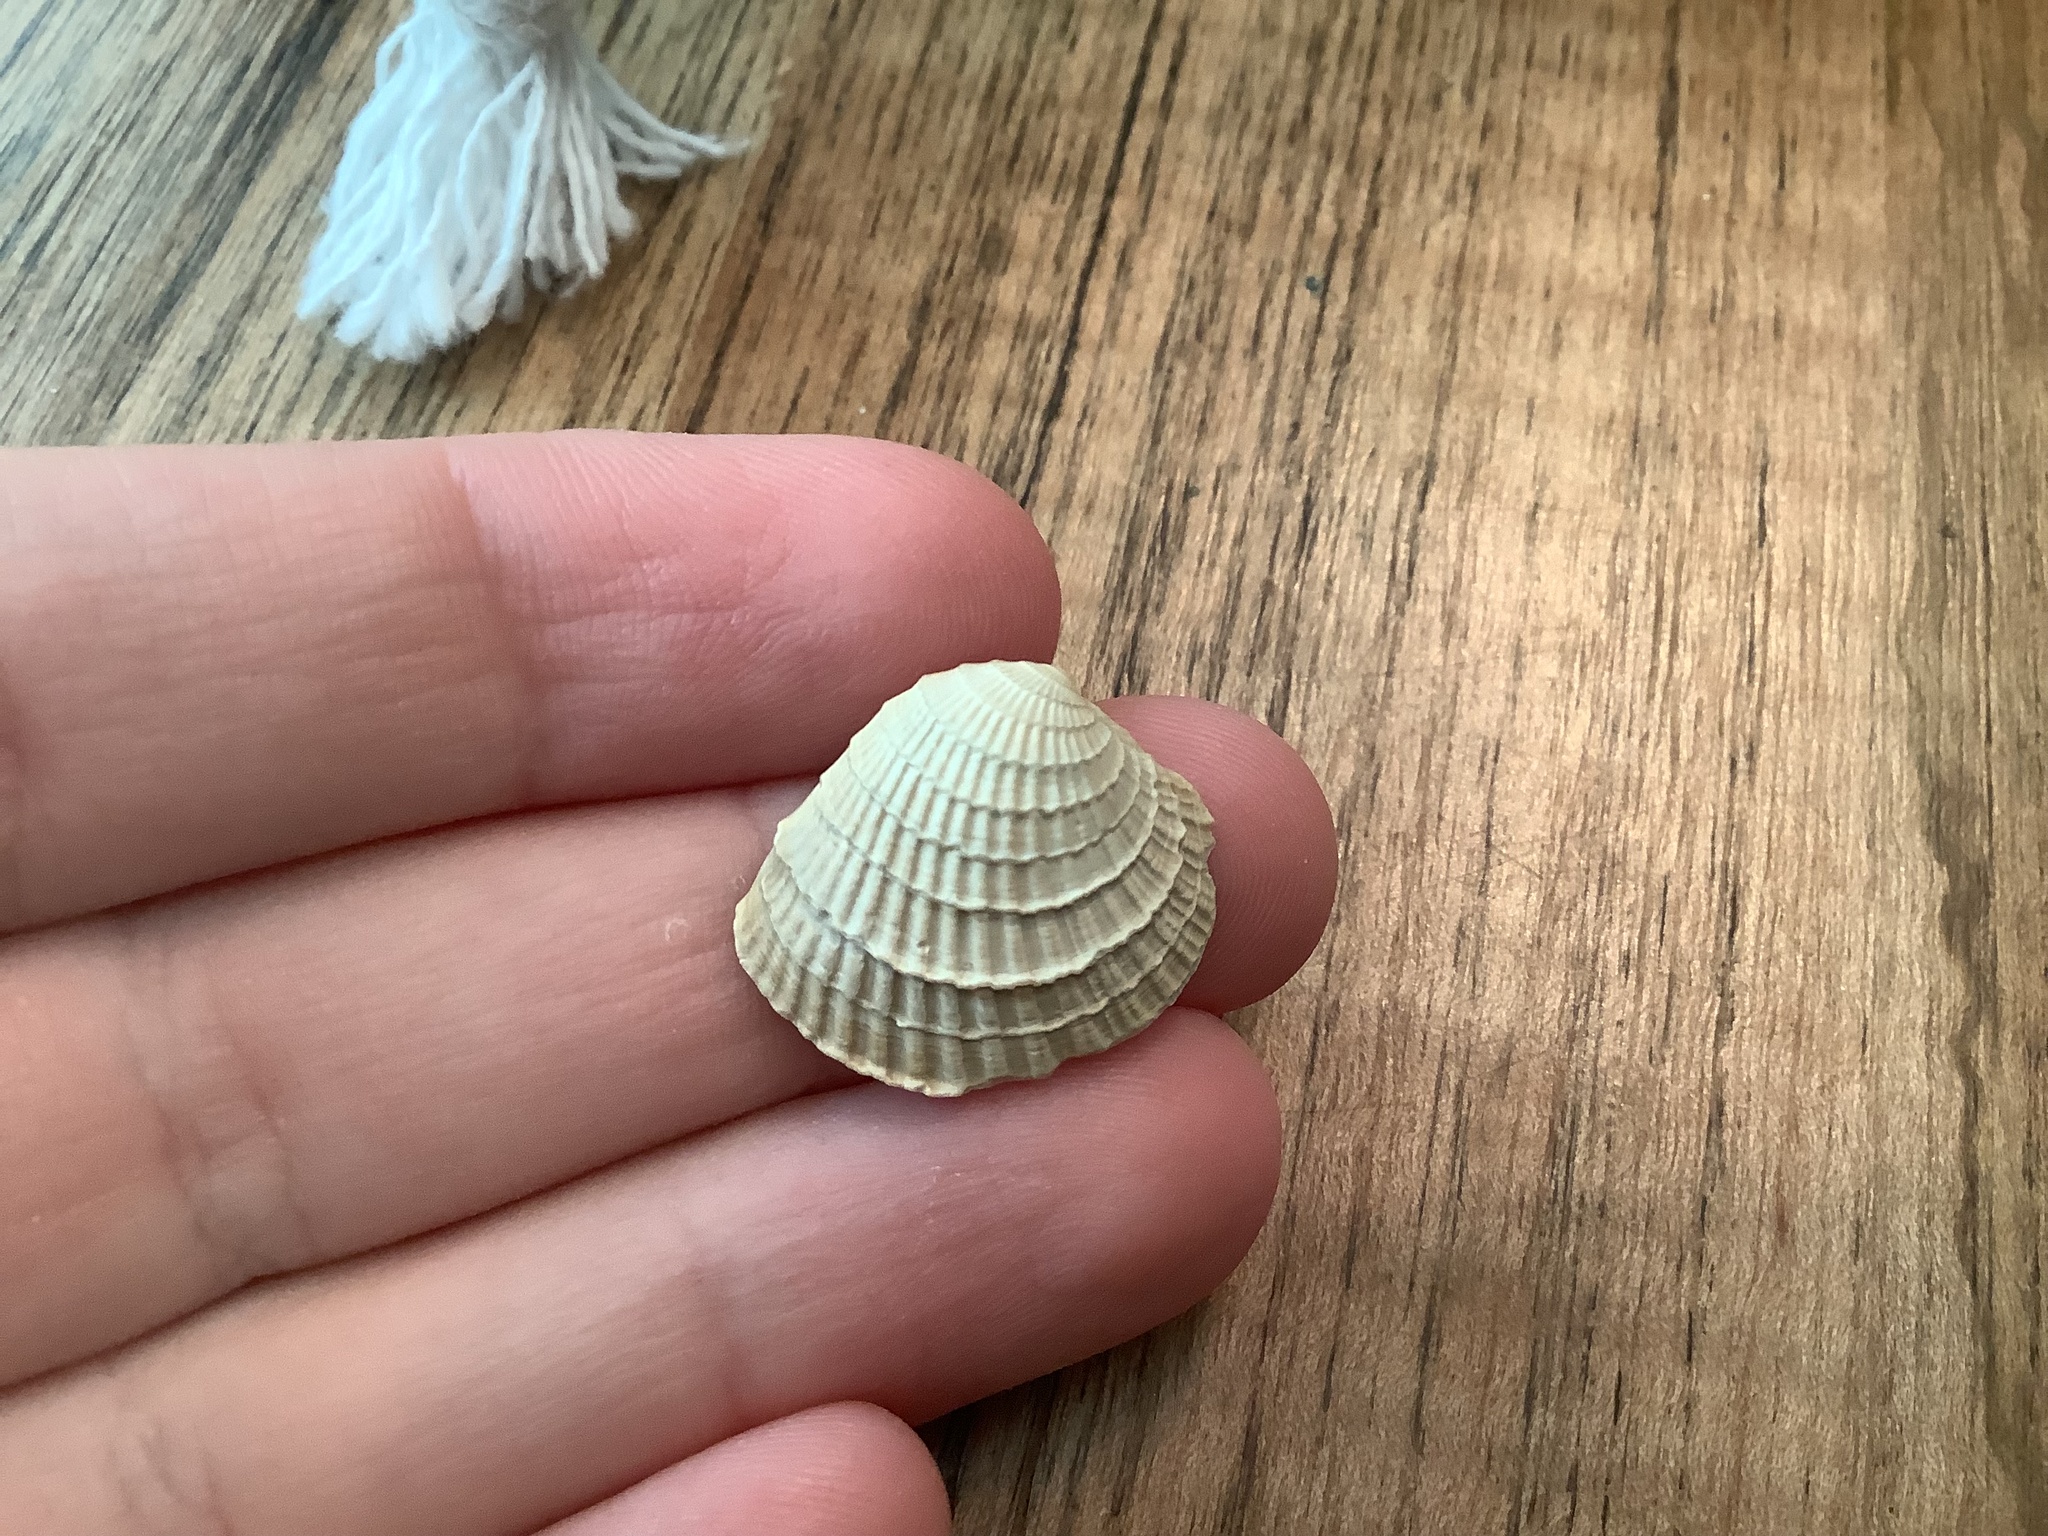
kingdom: Animalia
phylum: Mollusca
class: Bivalvia
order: Venerida
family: Veneridae
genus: Chione
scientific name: Chione elevata
